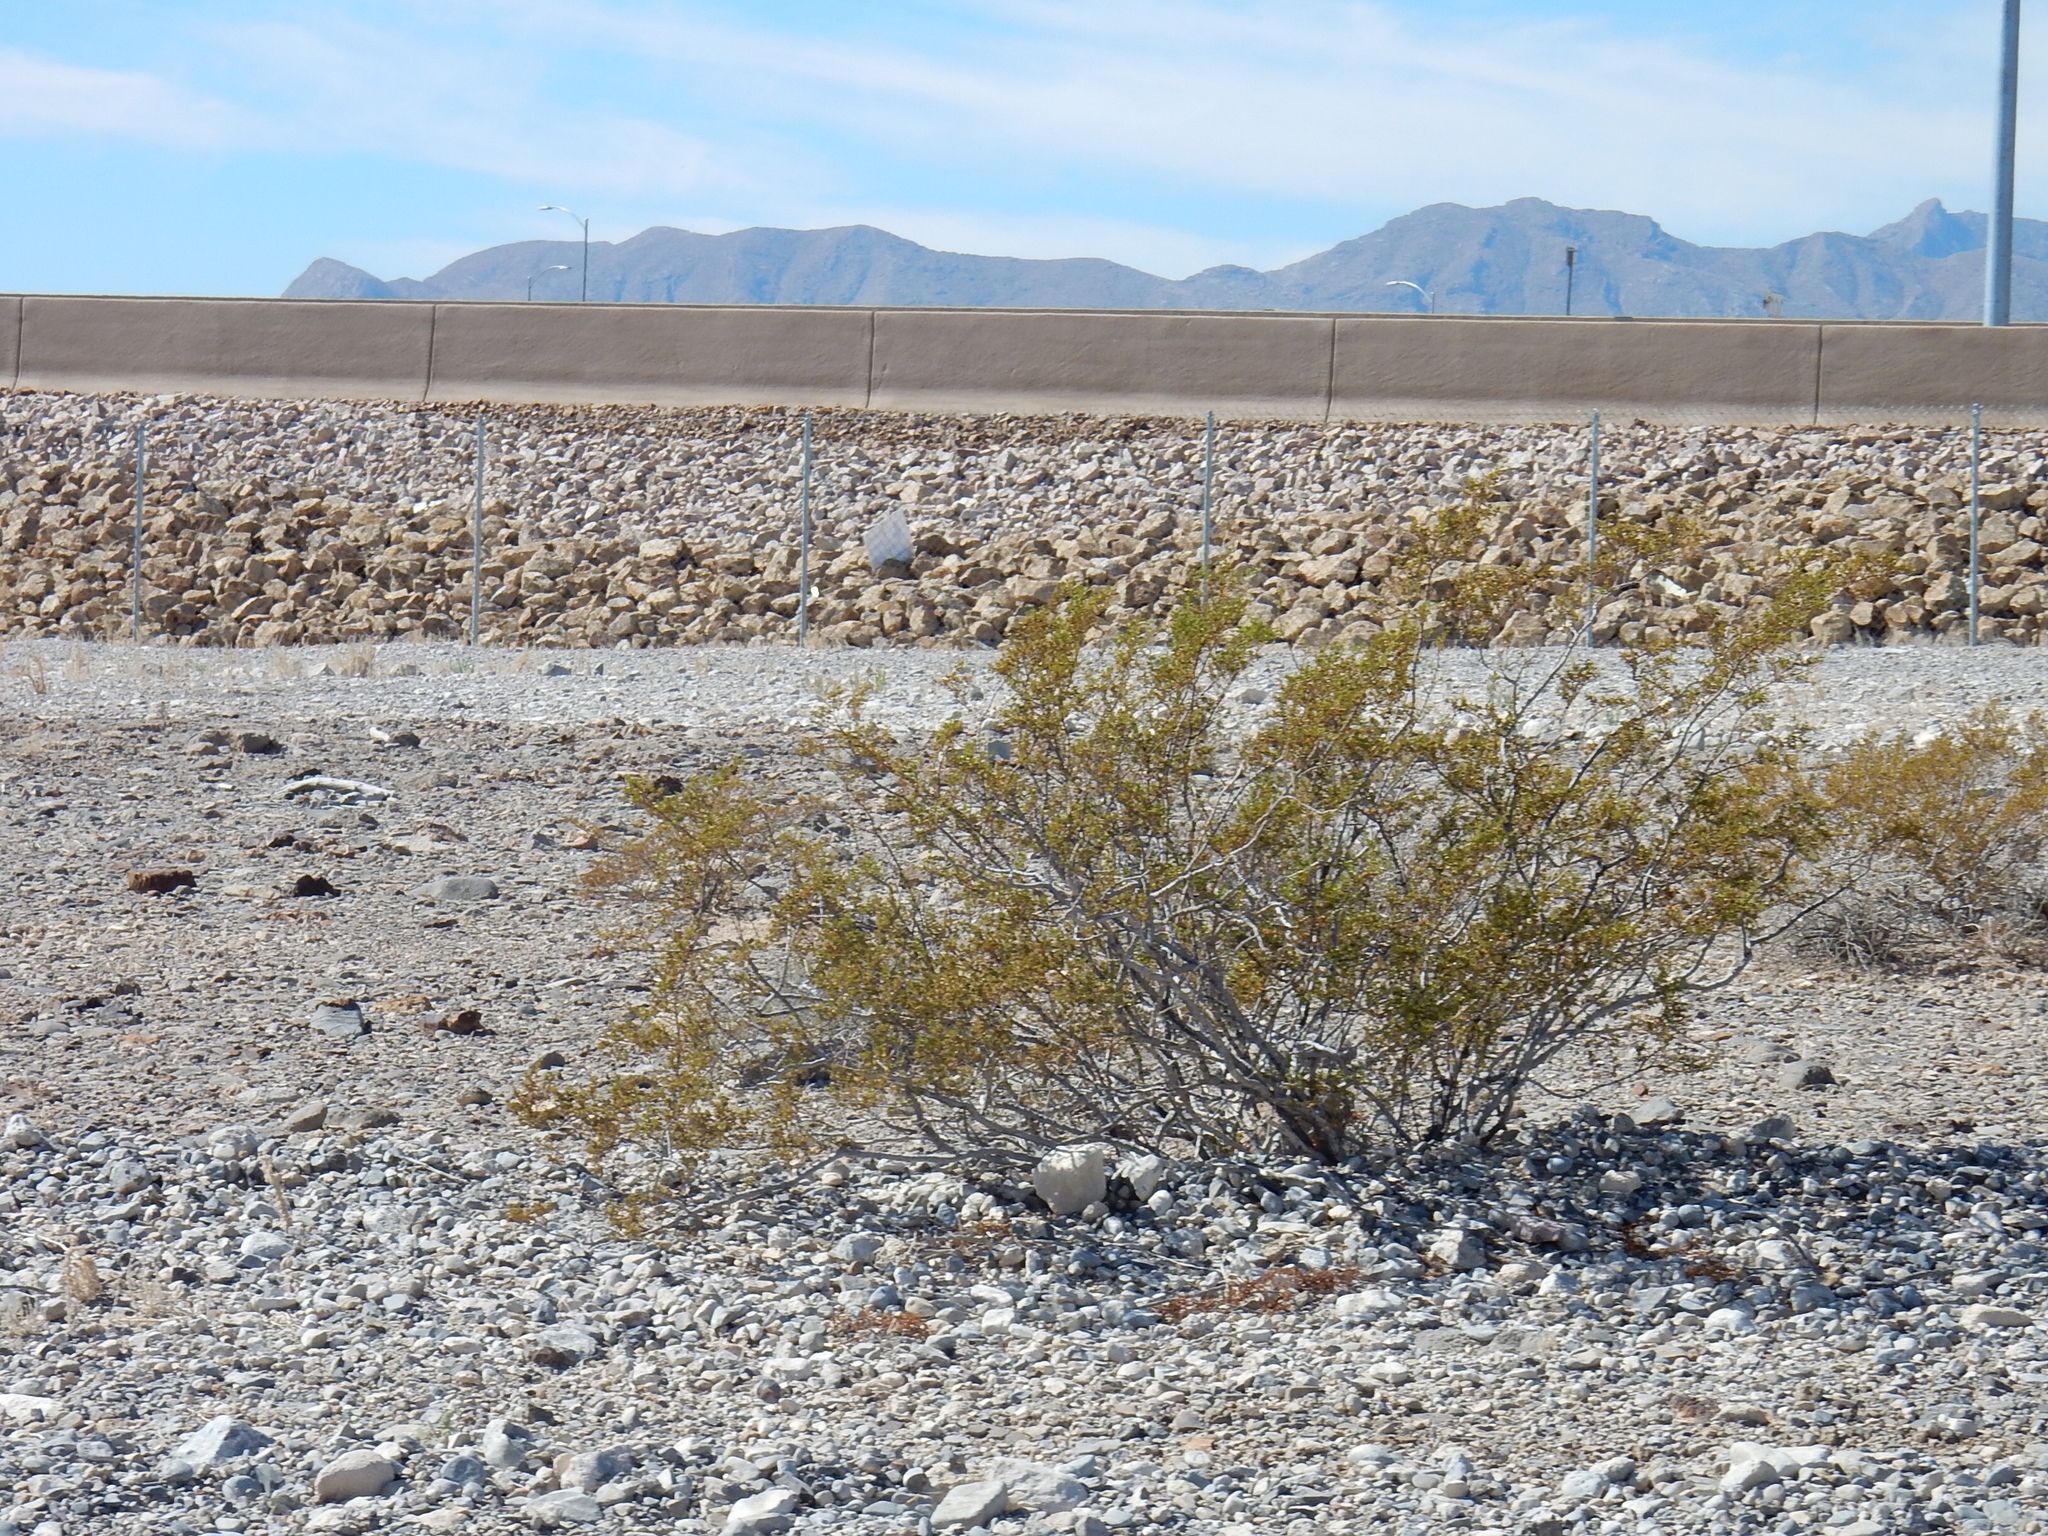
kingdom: Plantae
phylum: Tracheophyta
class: Magnoliopsida
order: Zygophyllales
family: Zygophyllaceae
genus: Larrea
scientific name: Larrea tridentata
